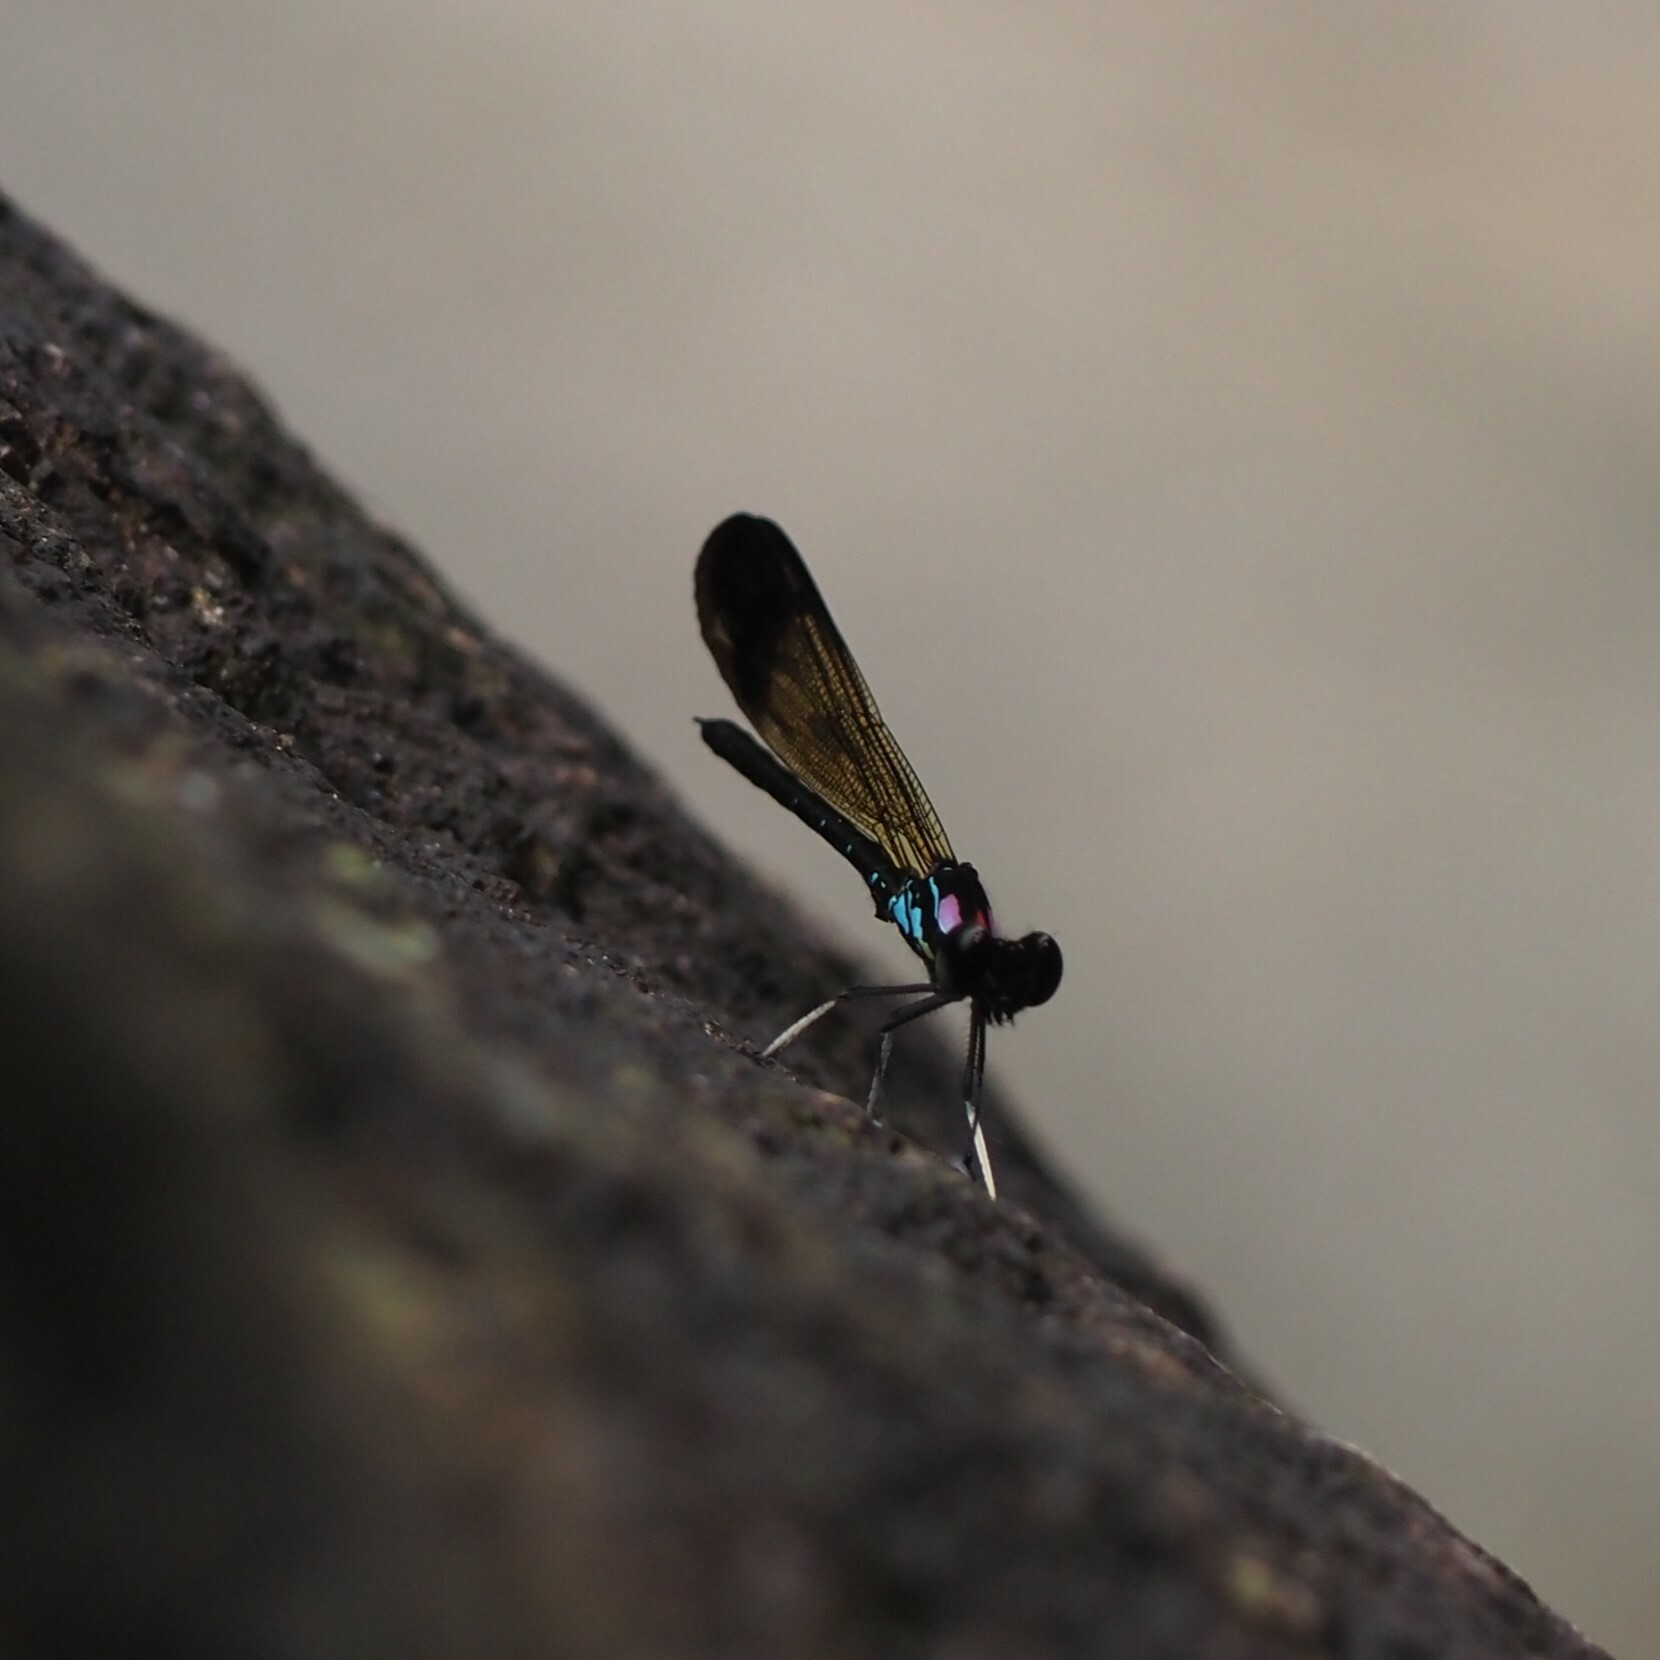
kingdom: Animalia
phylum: Arthropoda
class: Insecta
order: Odonata
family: Chlorocyphidae
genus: Heliocypha
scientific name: Heliocypha biforata
